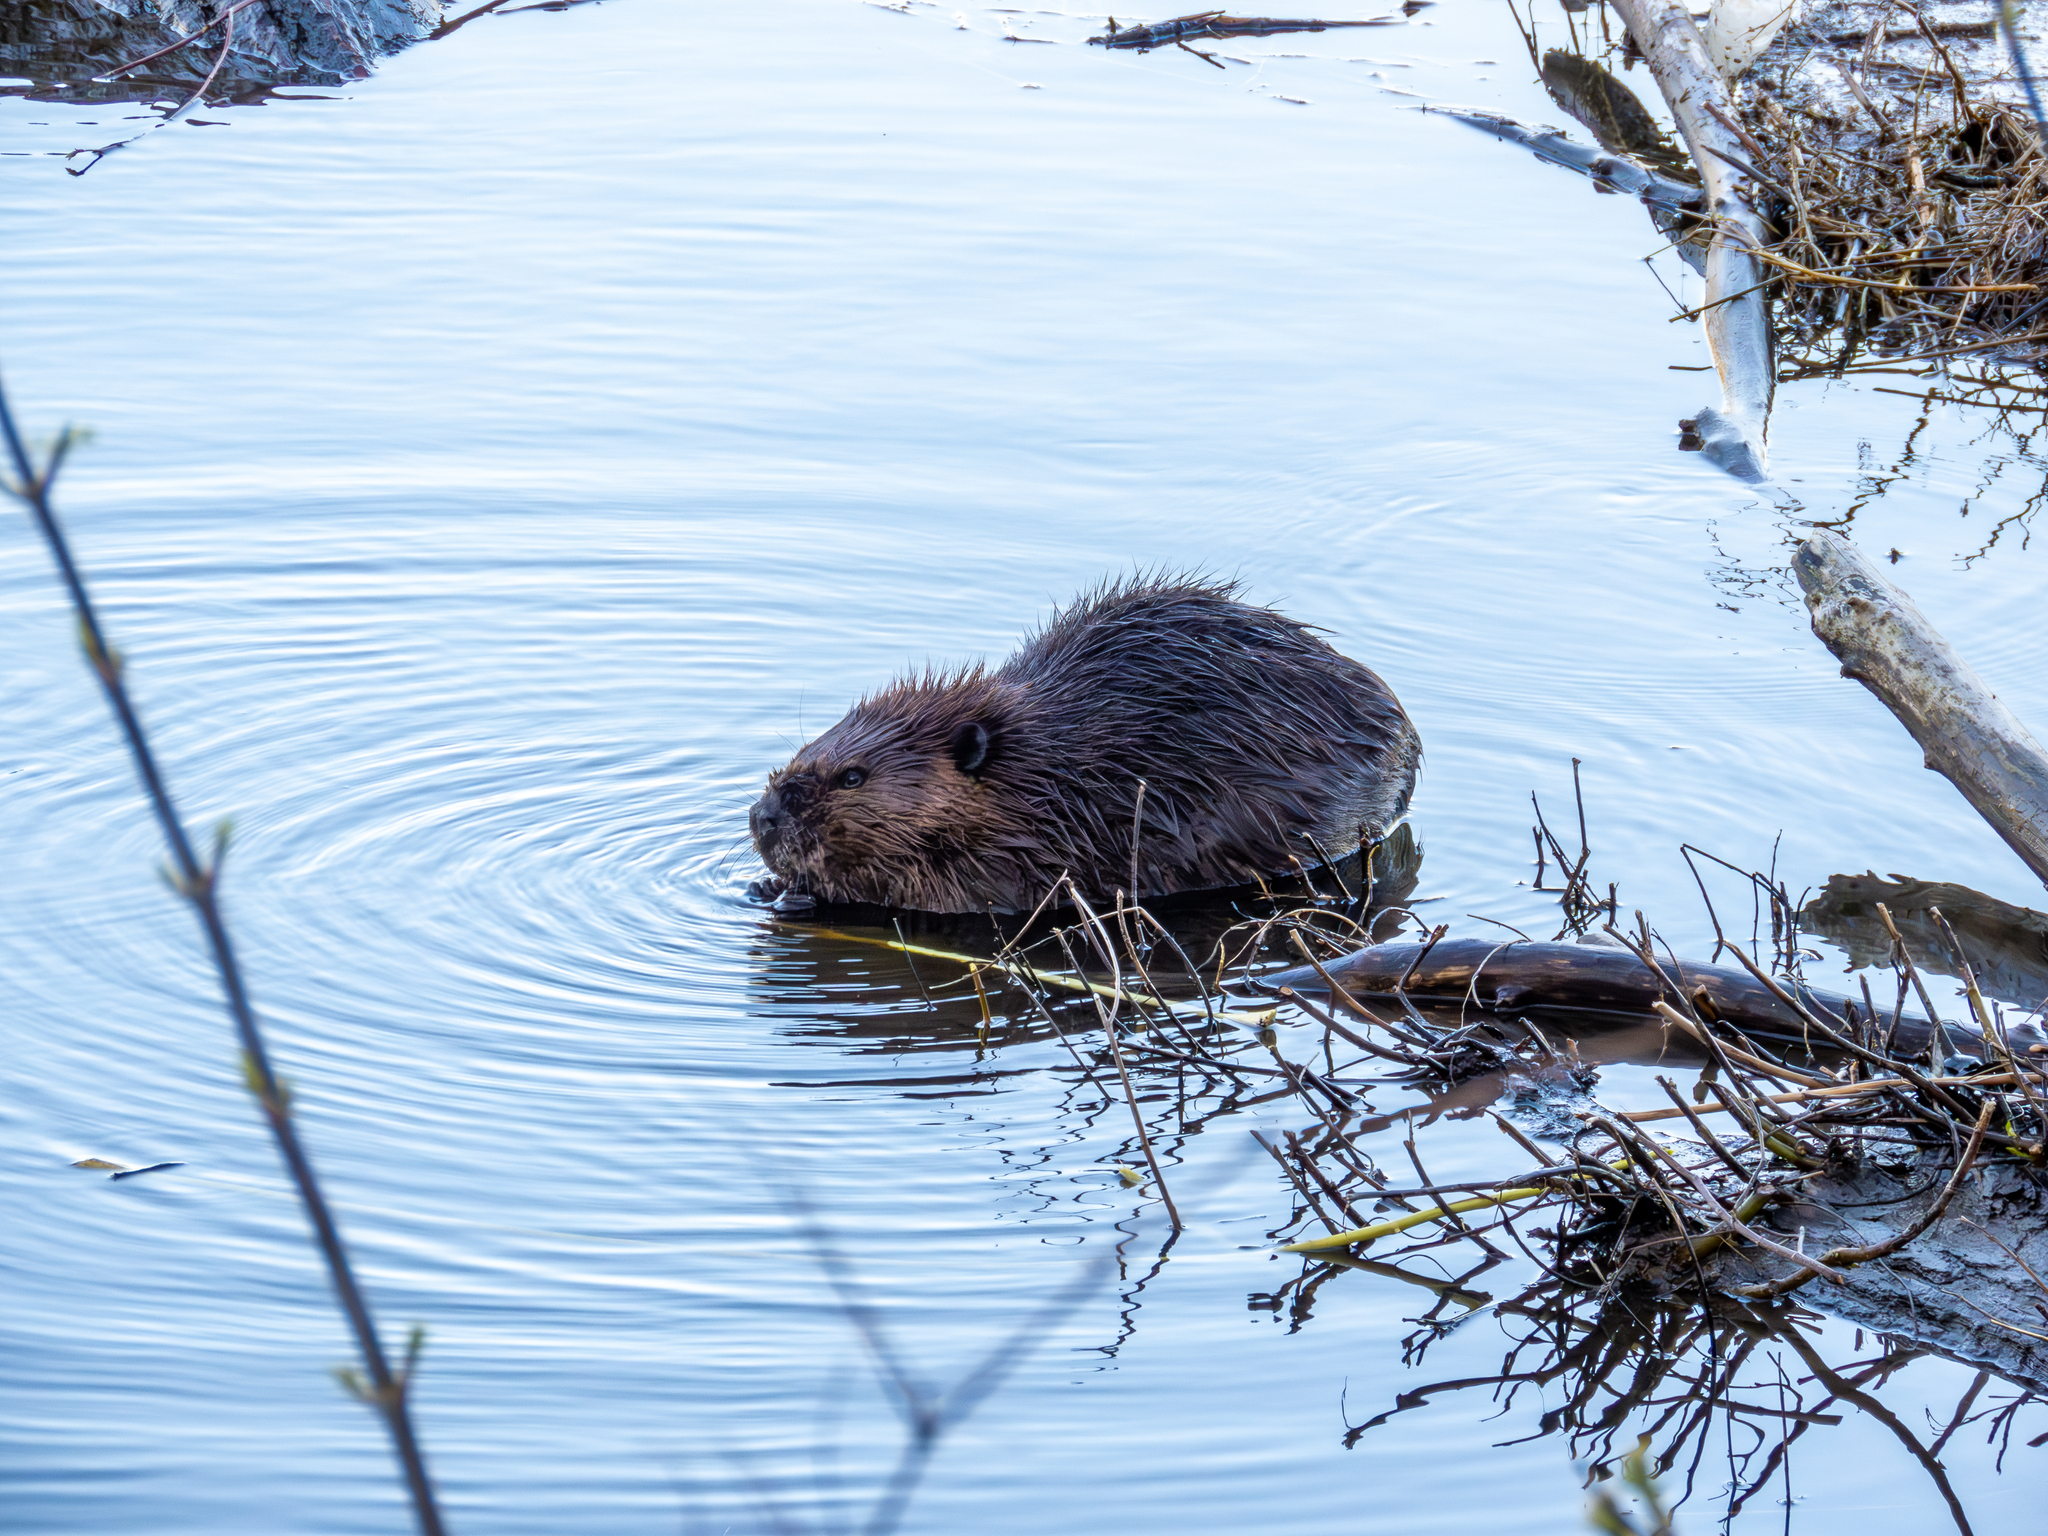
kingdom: Animalia
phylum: Chordata
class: Mammalia
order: Rodentia
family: Castoridae
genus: Castor
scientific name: Castor canadensis
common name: American beaver
